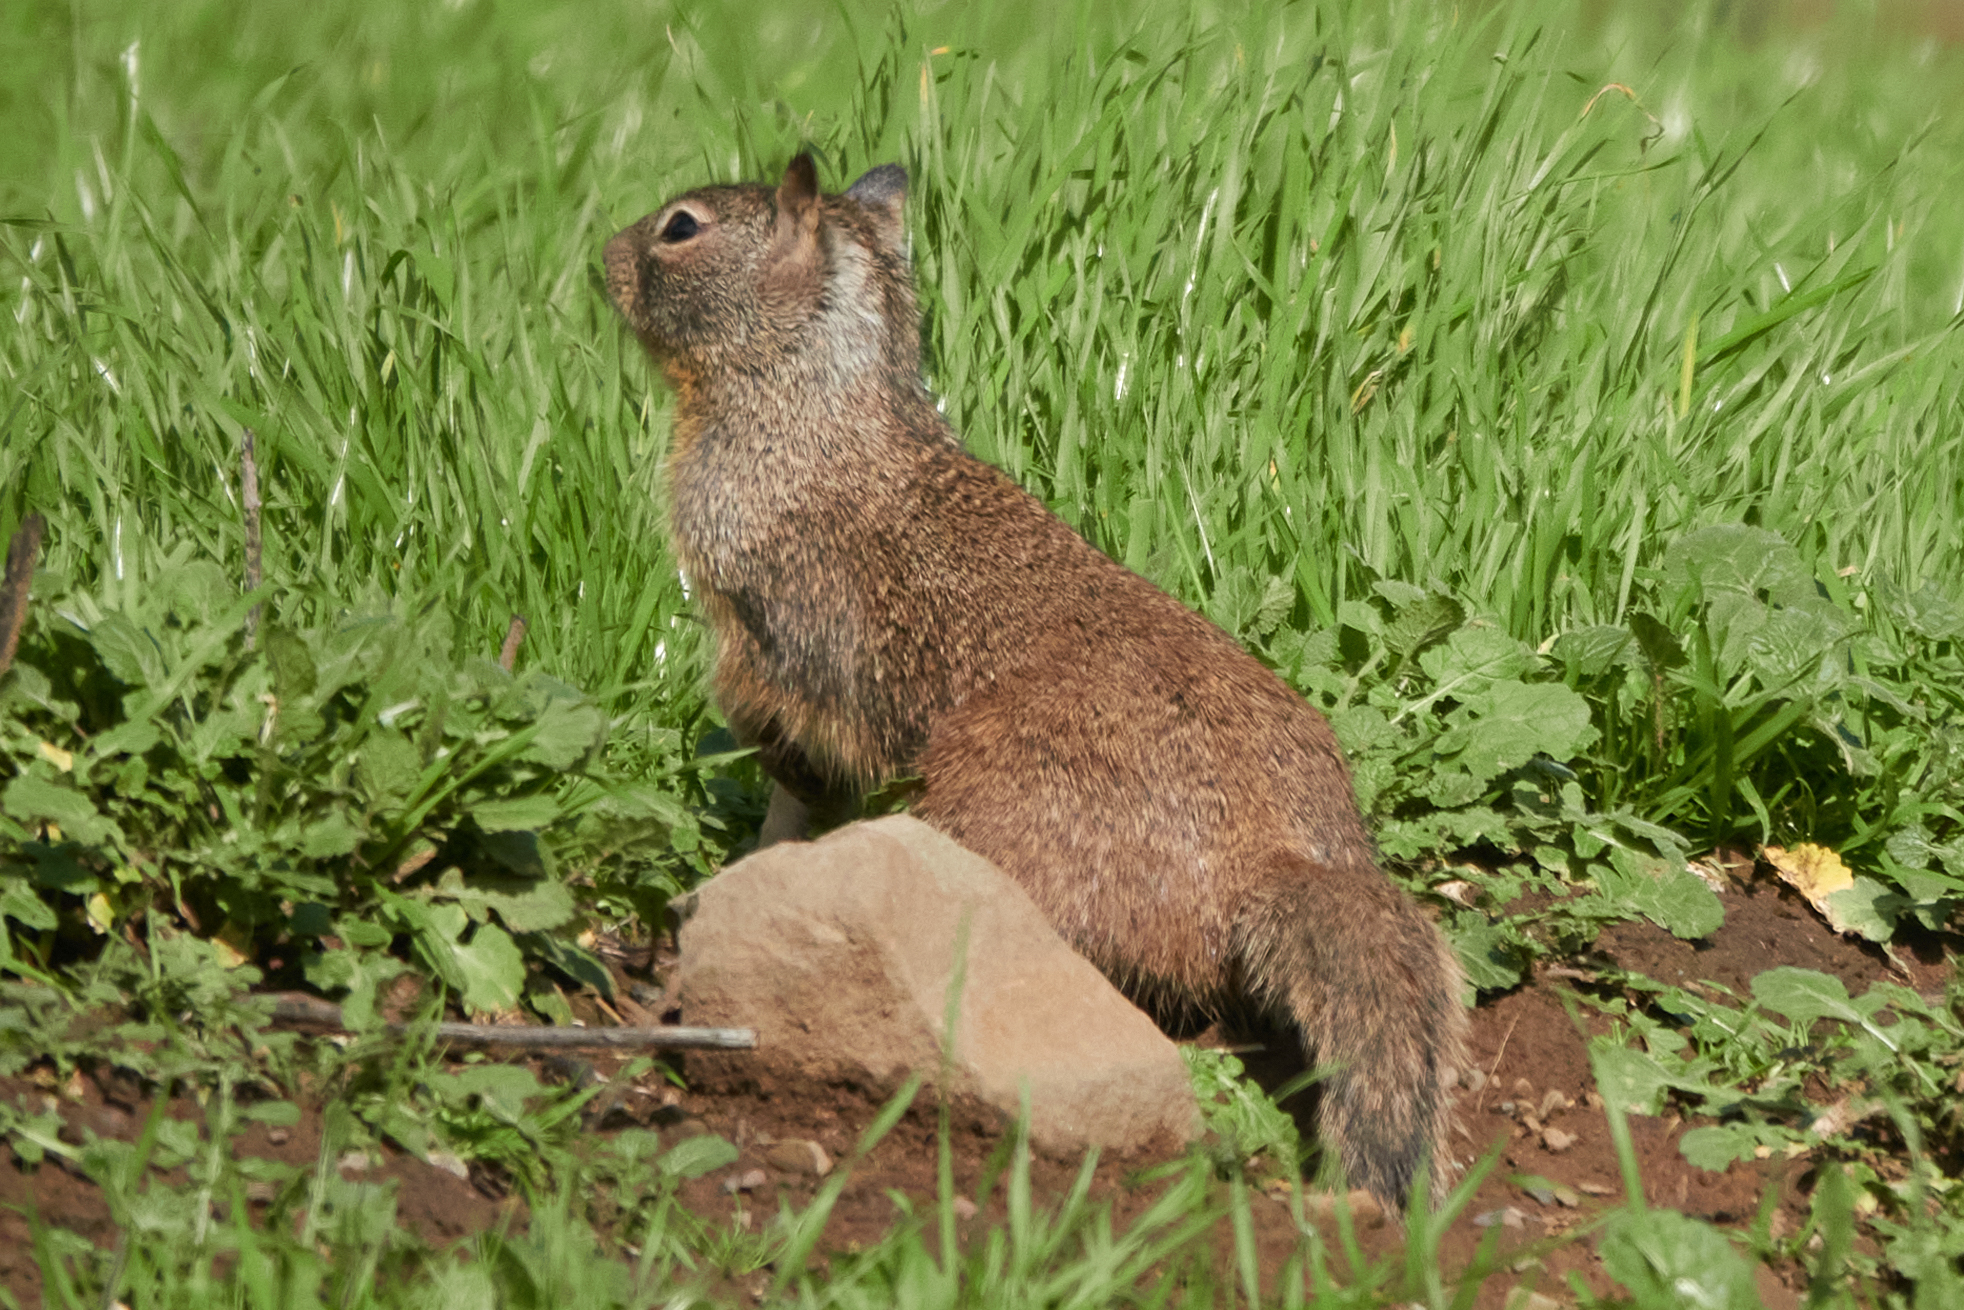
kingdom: Animalia
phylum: Chordata
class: Mammalia
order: Rodentia
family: Sciuridae
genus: Otospermophilus
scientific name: Otospermophilus beecheyi
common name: California ground squirrel
